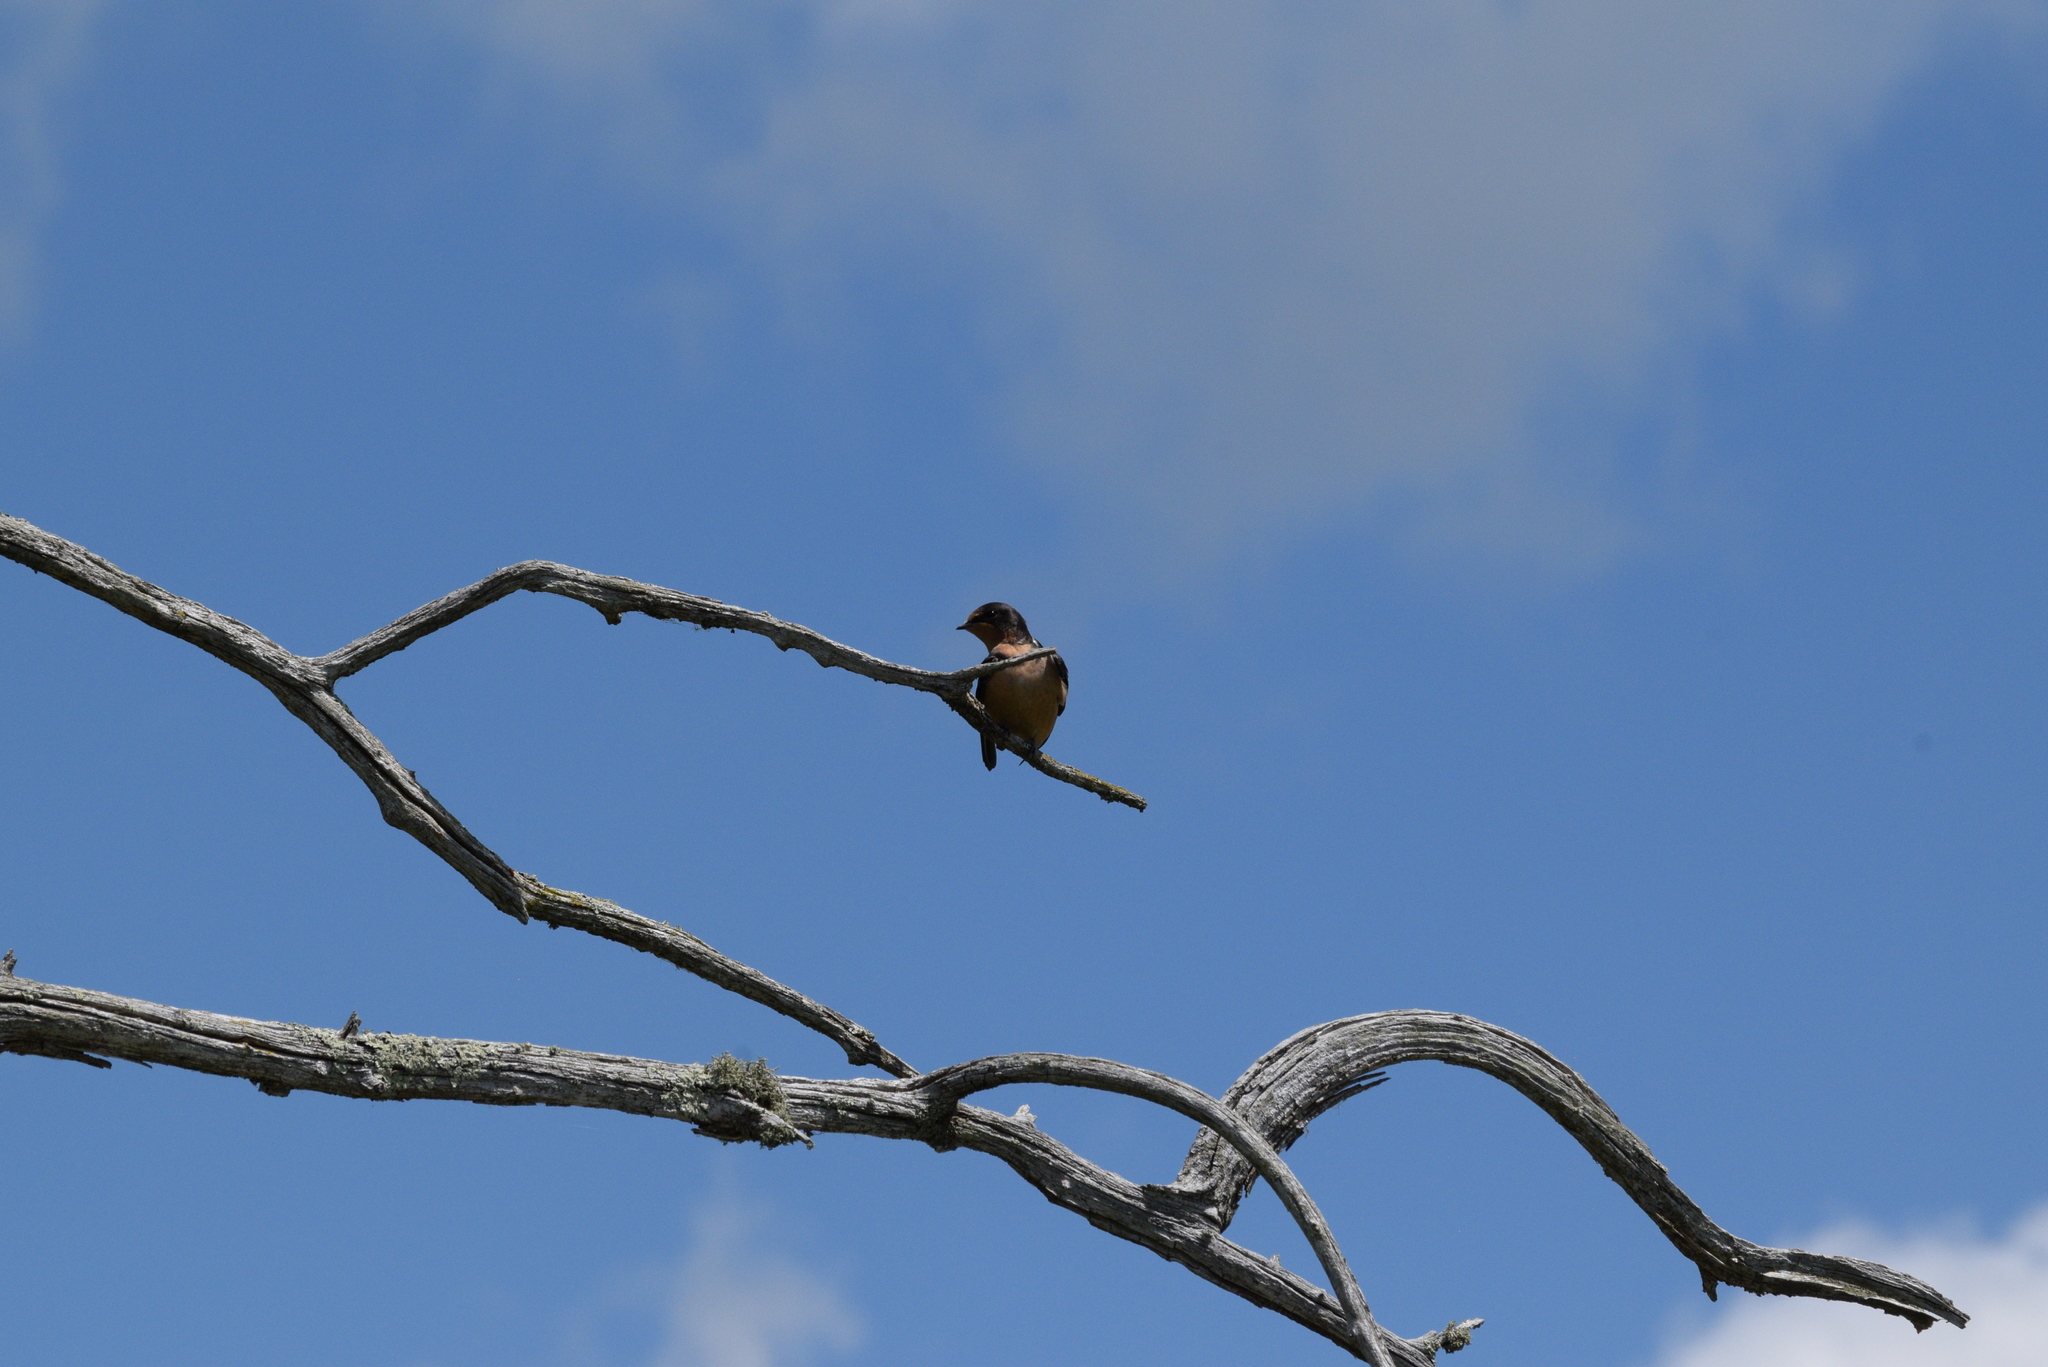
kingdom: Animalia
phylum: Chordata
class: Aves
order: Passeriformes
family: Hirundinidae
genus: Hirundo
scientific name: Hirundo rustica
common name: Barn swallow
